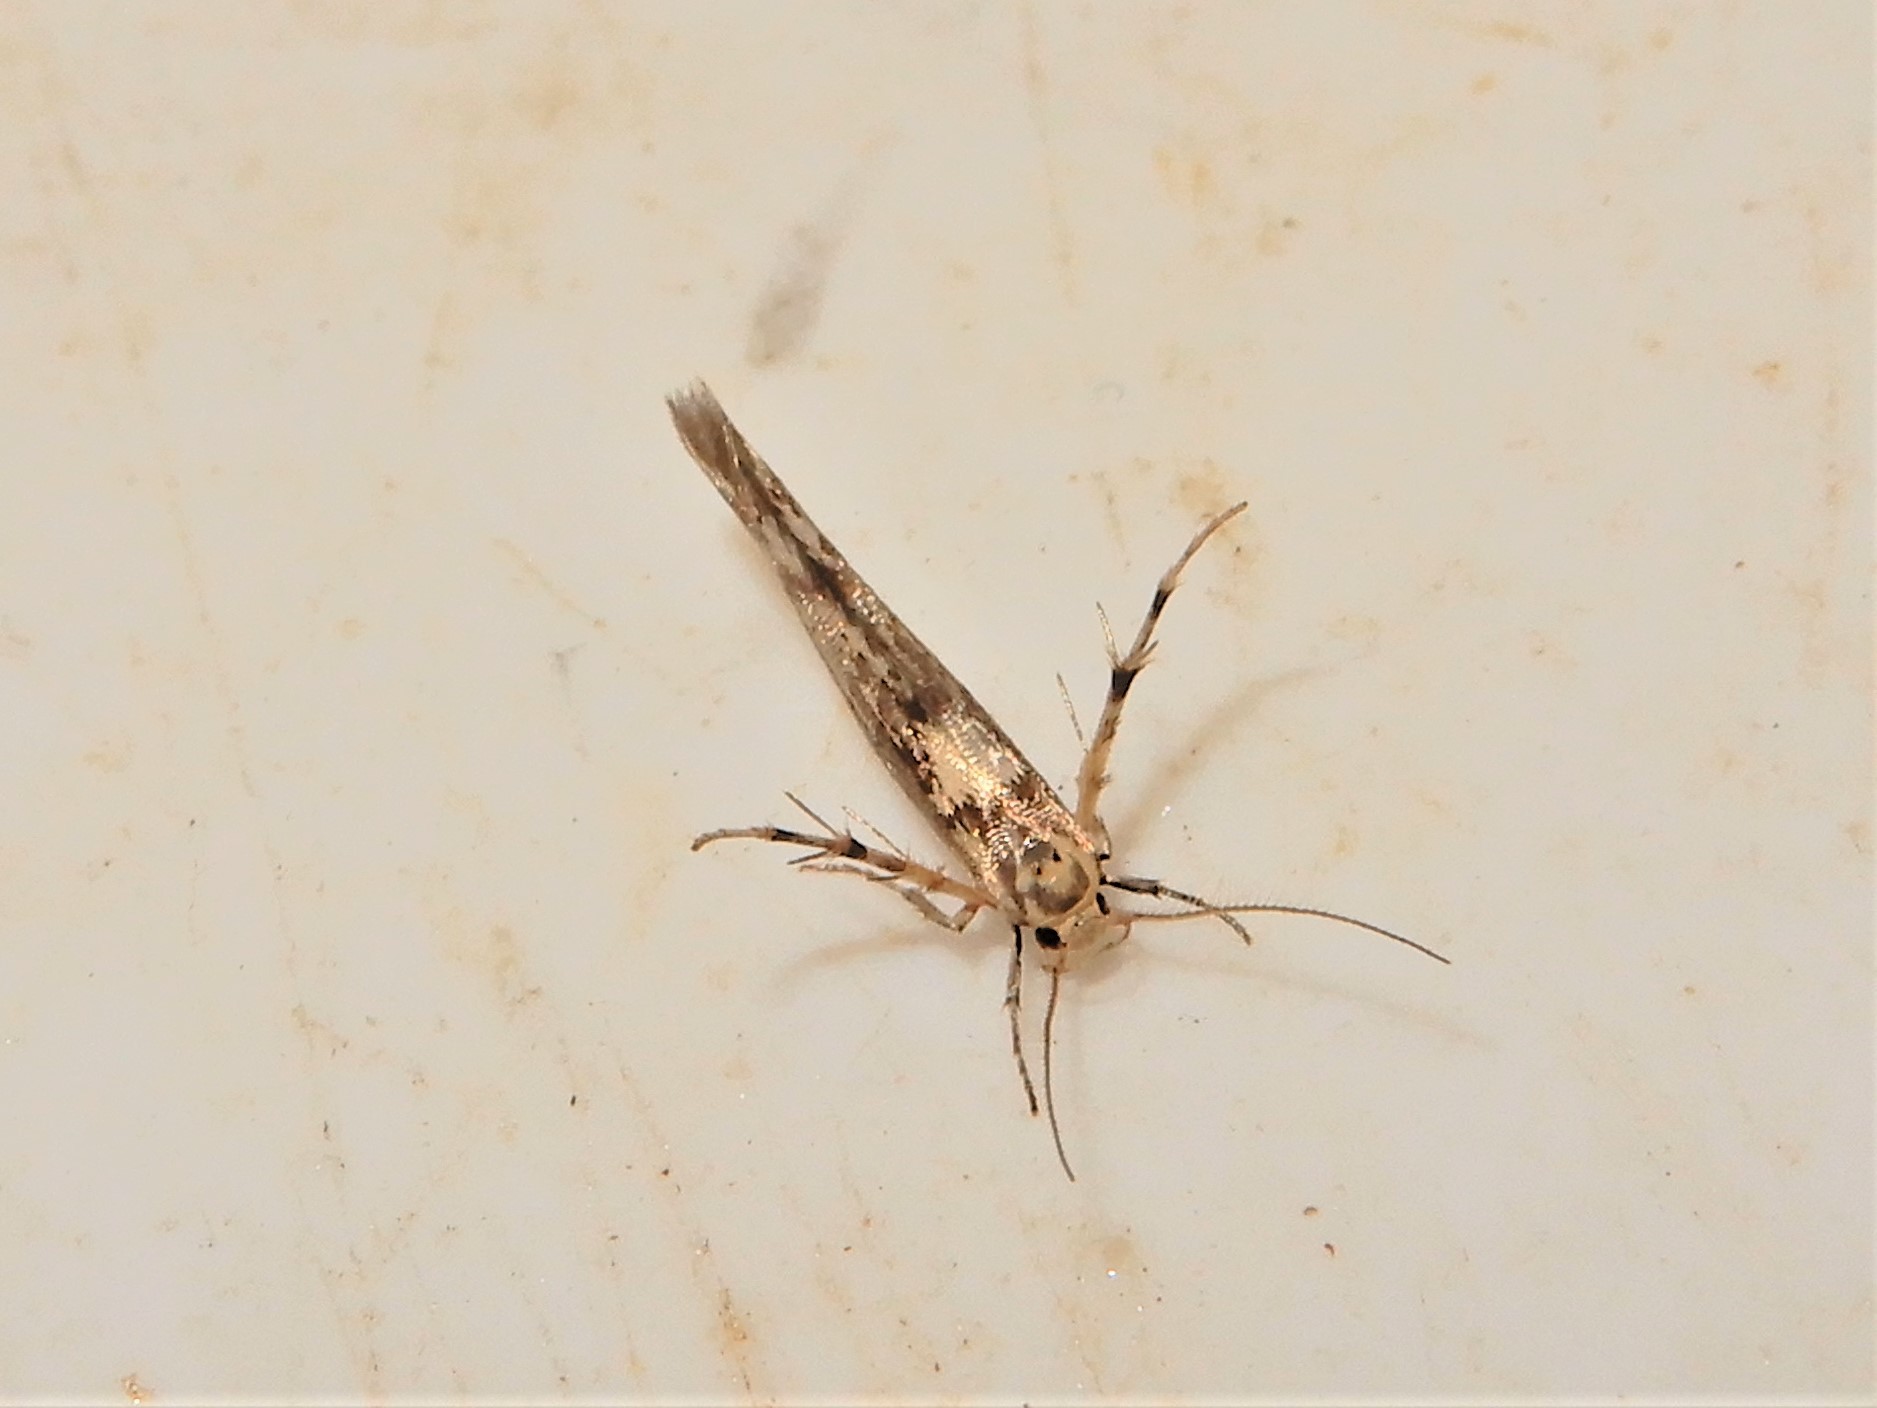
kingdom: Animalia
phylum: Arthropoda
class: Insecta
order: Lepidoptera
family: Stathmopodidae
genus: Stathmopoda
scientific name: Stathmopoda plumbiflua
